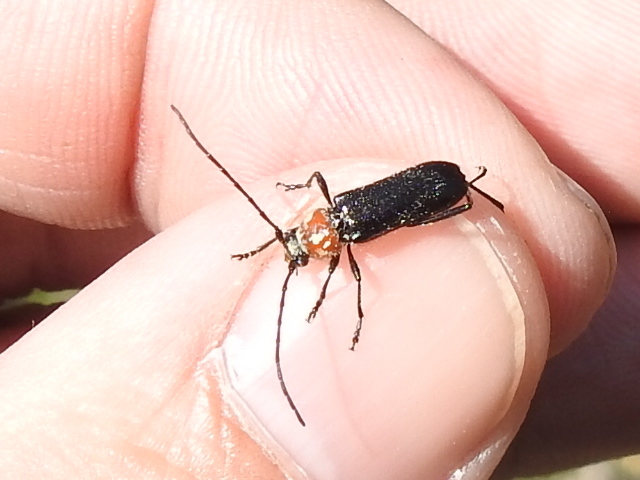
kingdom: Animalia
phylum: Arthropoda
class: Insecta
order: Coleoptera
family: Cerambycidae
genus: Batyle
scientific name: Batyle ignicollis
